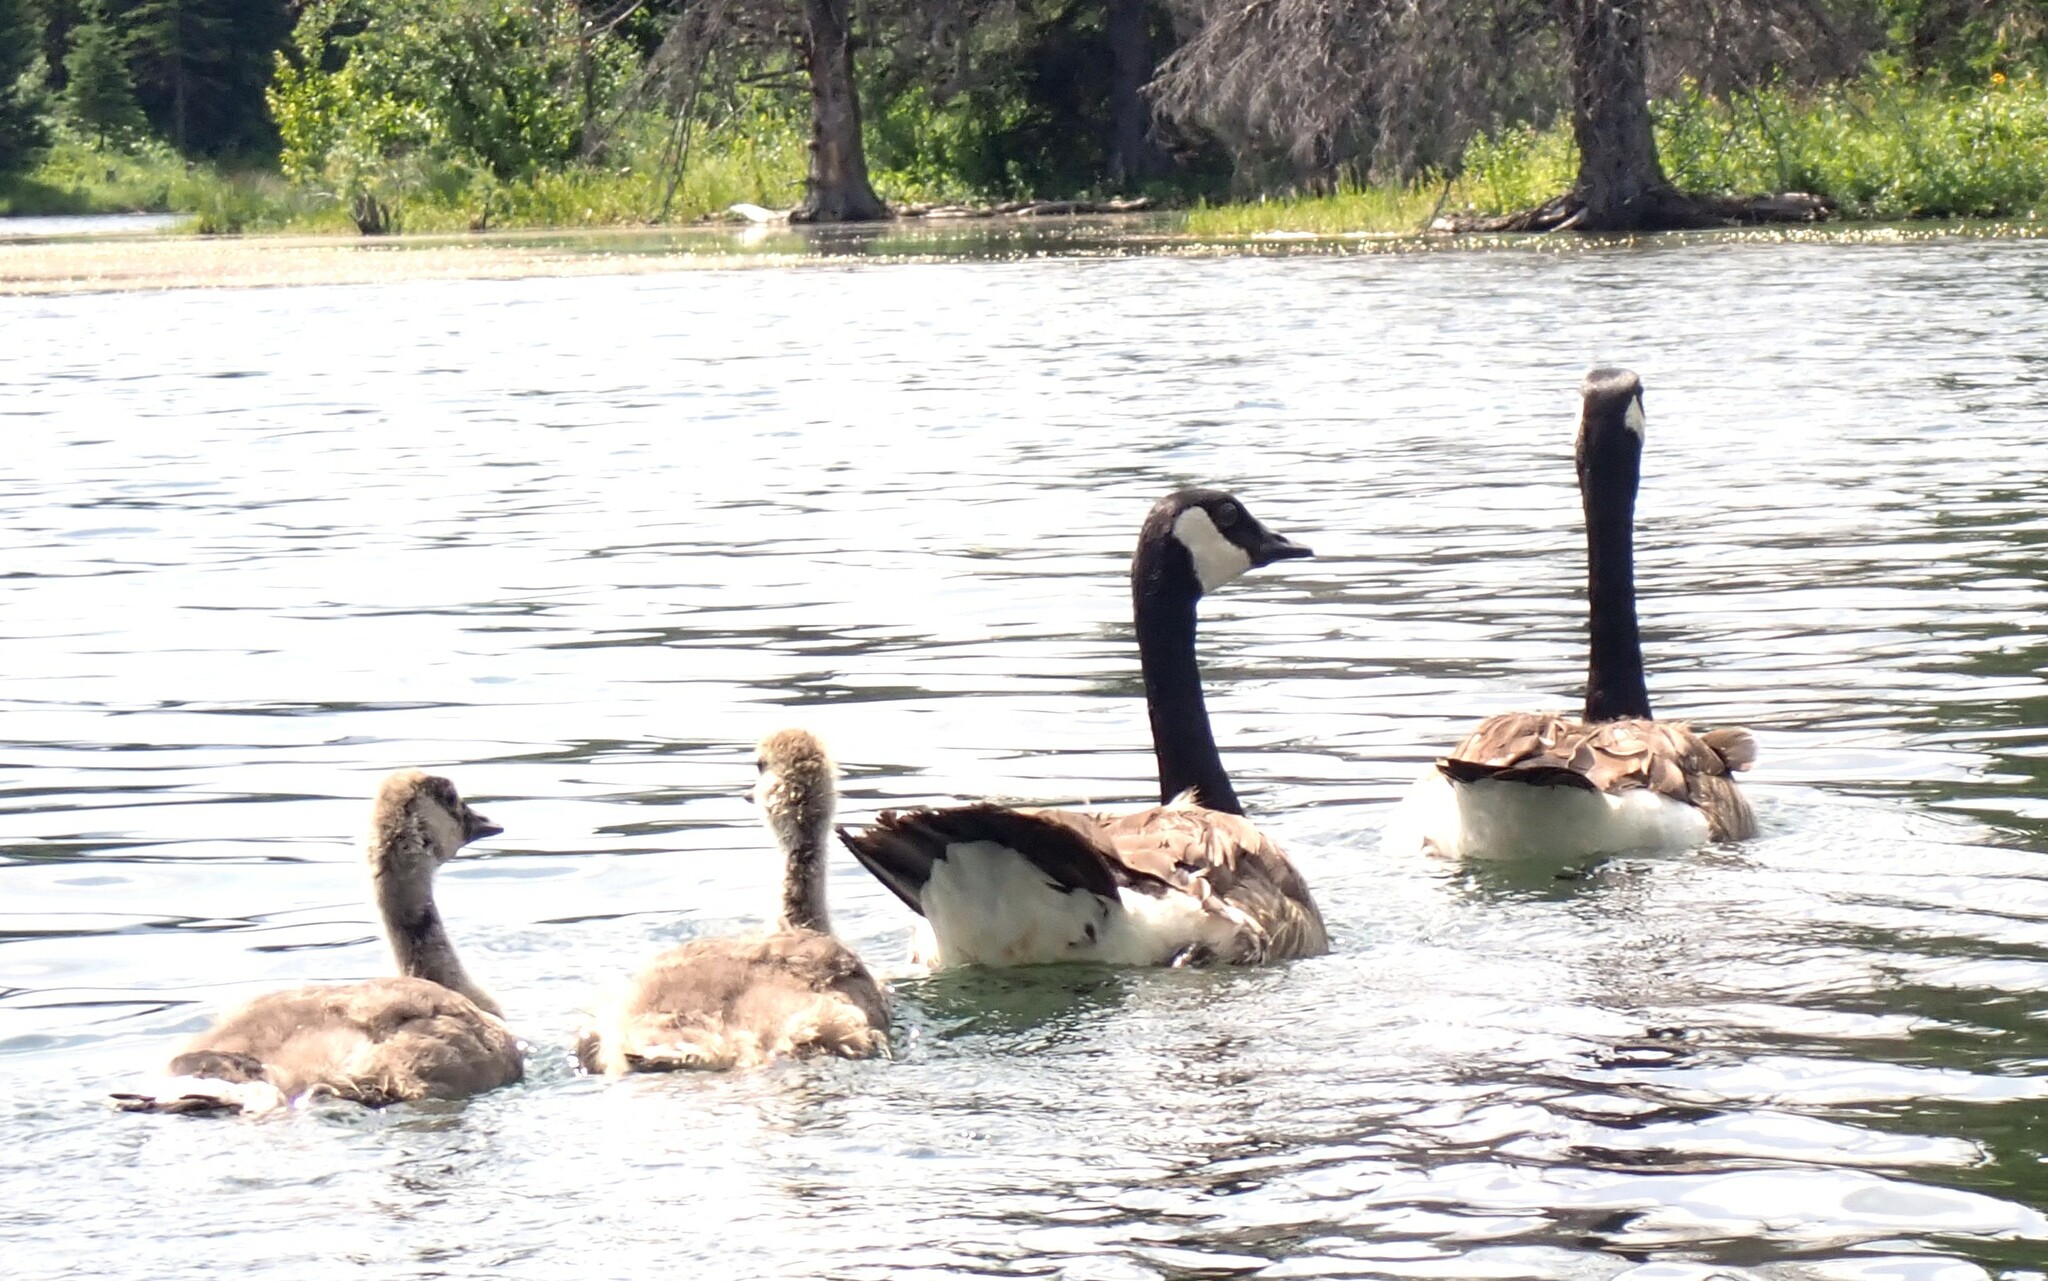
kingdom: Animalia
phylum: Chordata
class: Aves
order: Anseriformes
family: Anatidae
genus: Branta
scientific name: Branta canadensis
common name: Canada goose
